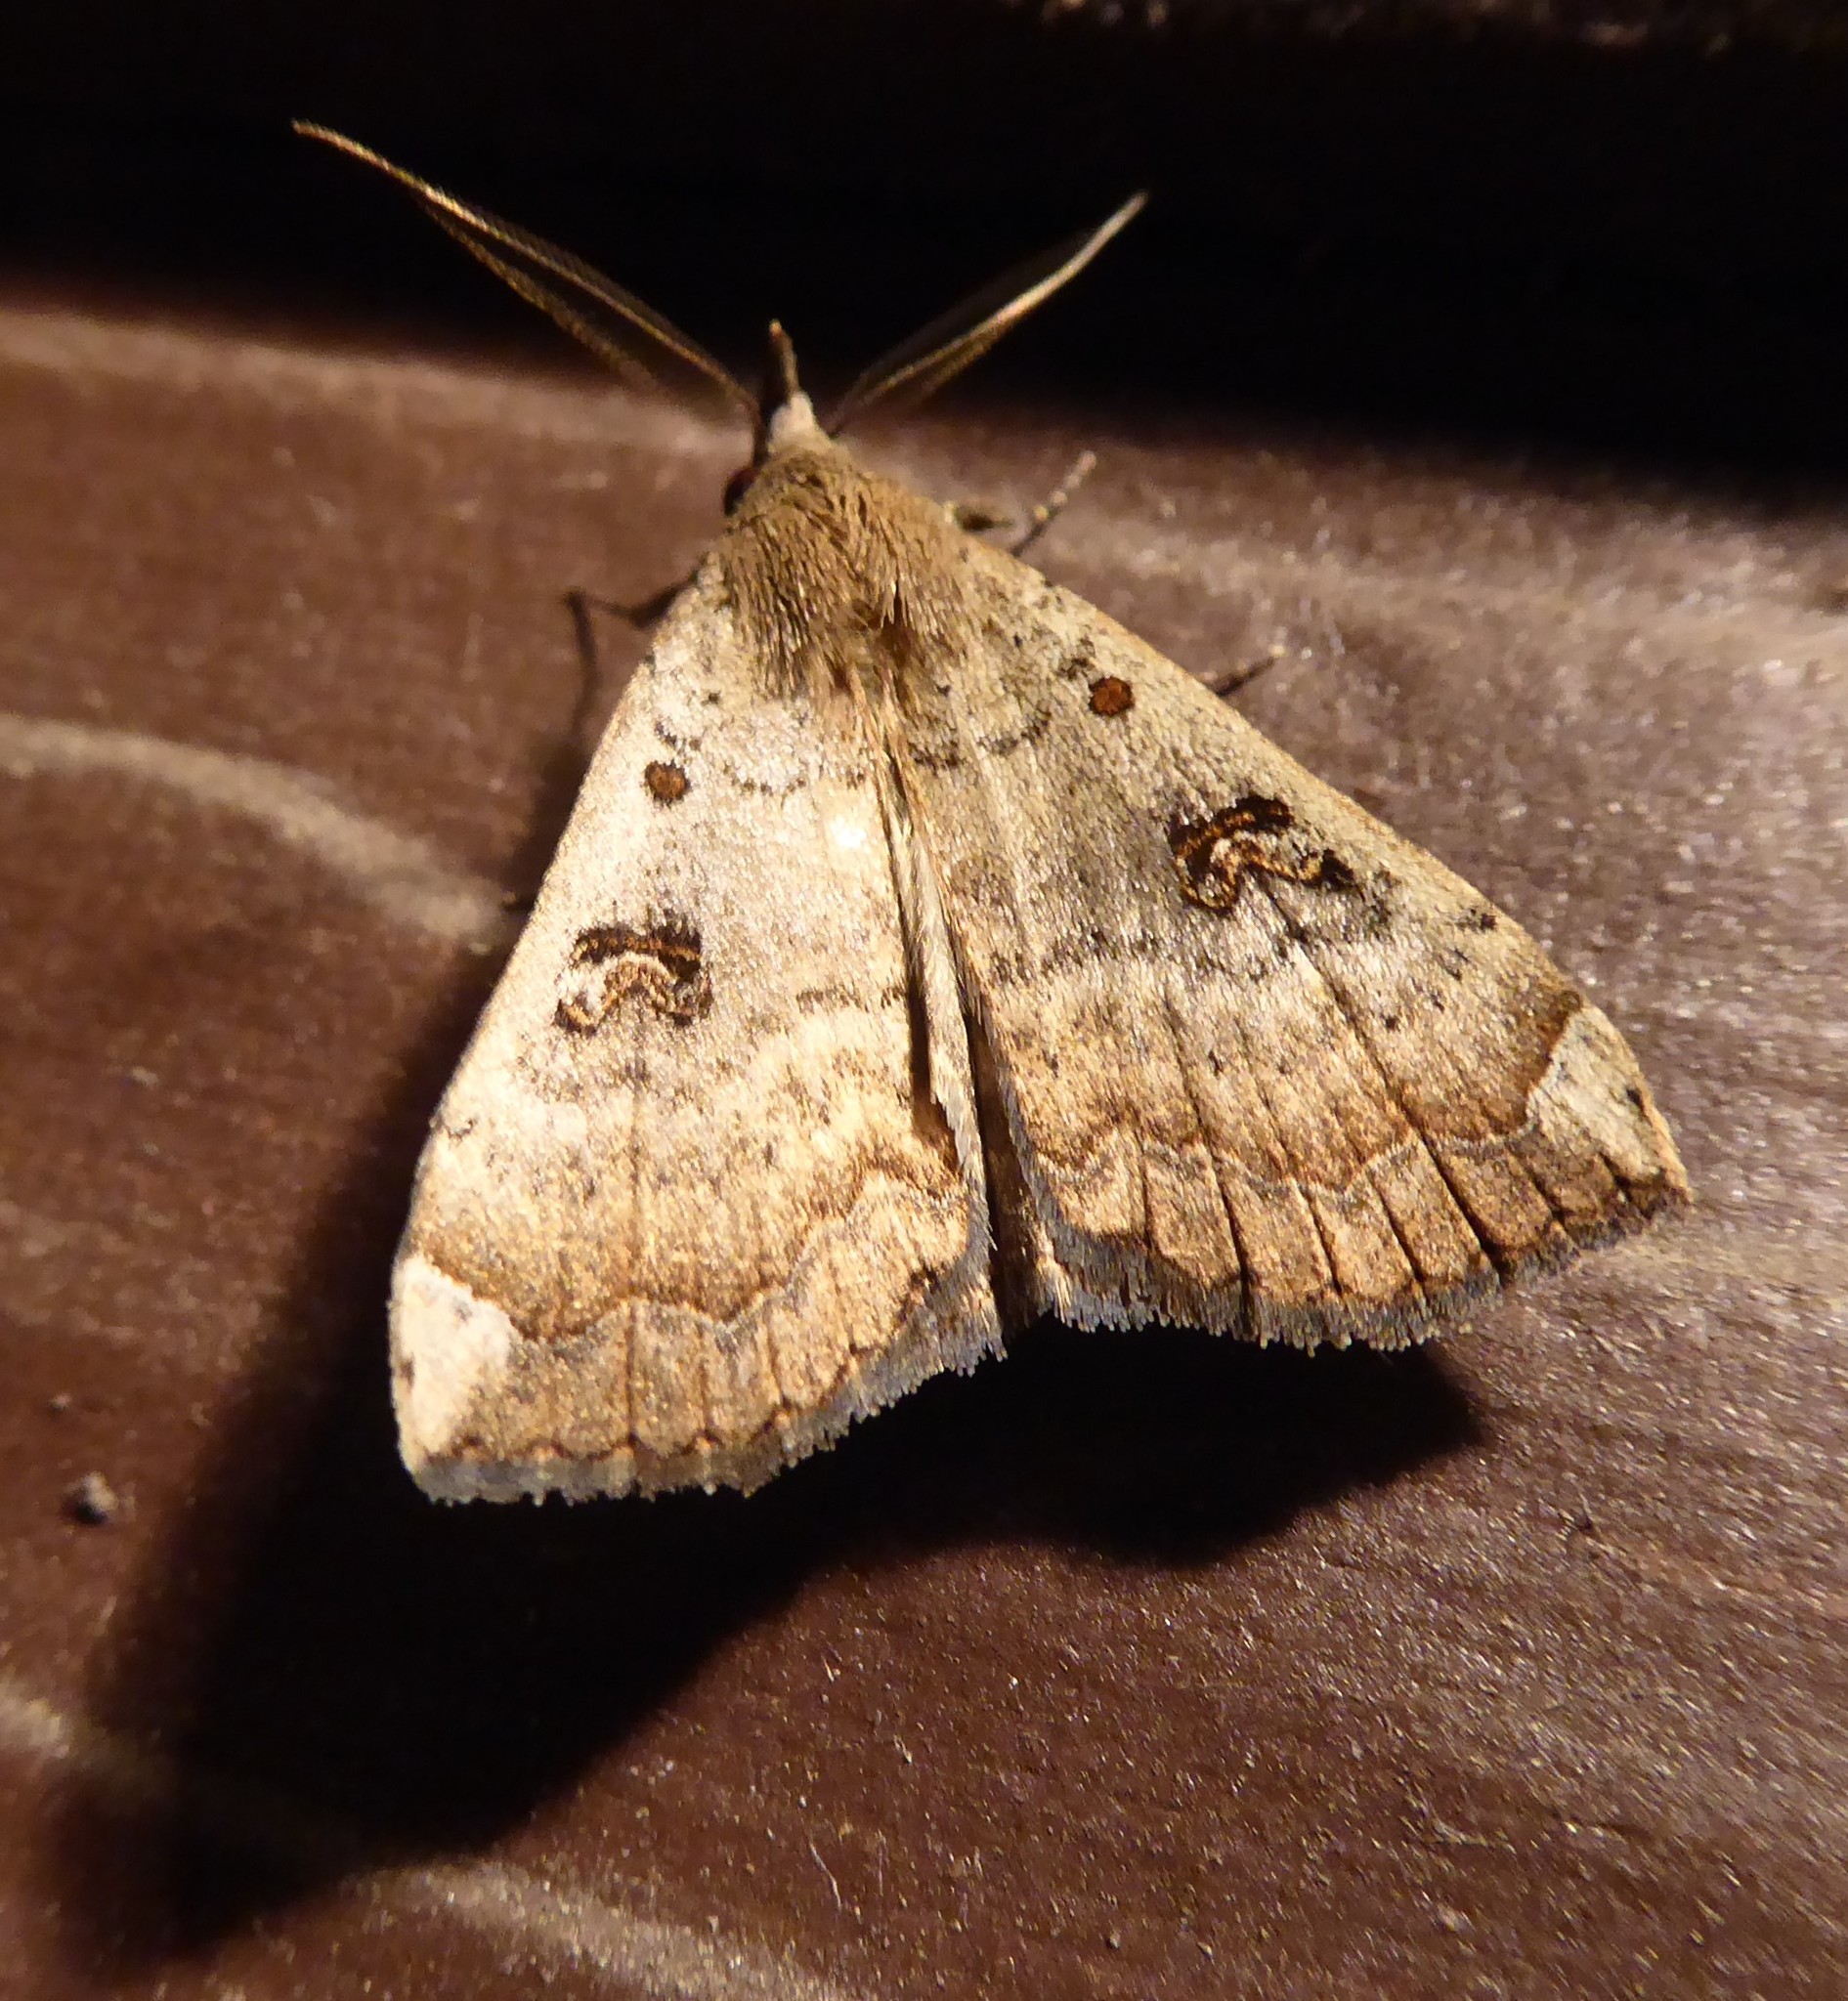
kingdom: Animalia
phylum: Arthropoda
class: Insecta
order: Lepidoptera
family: Erebidae
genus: Rhapsa
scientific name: Rhapsa scotosialis
